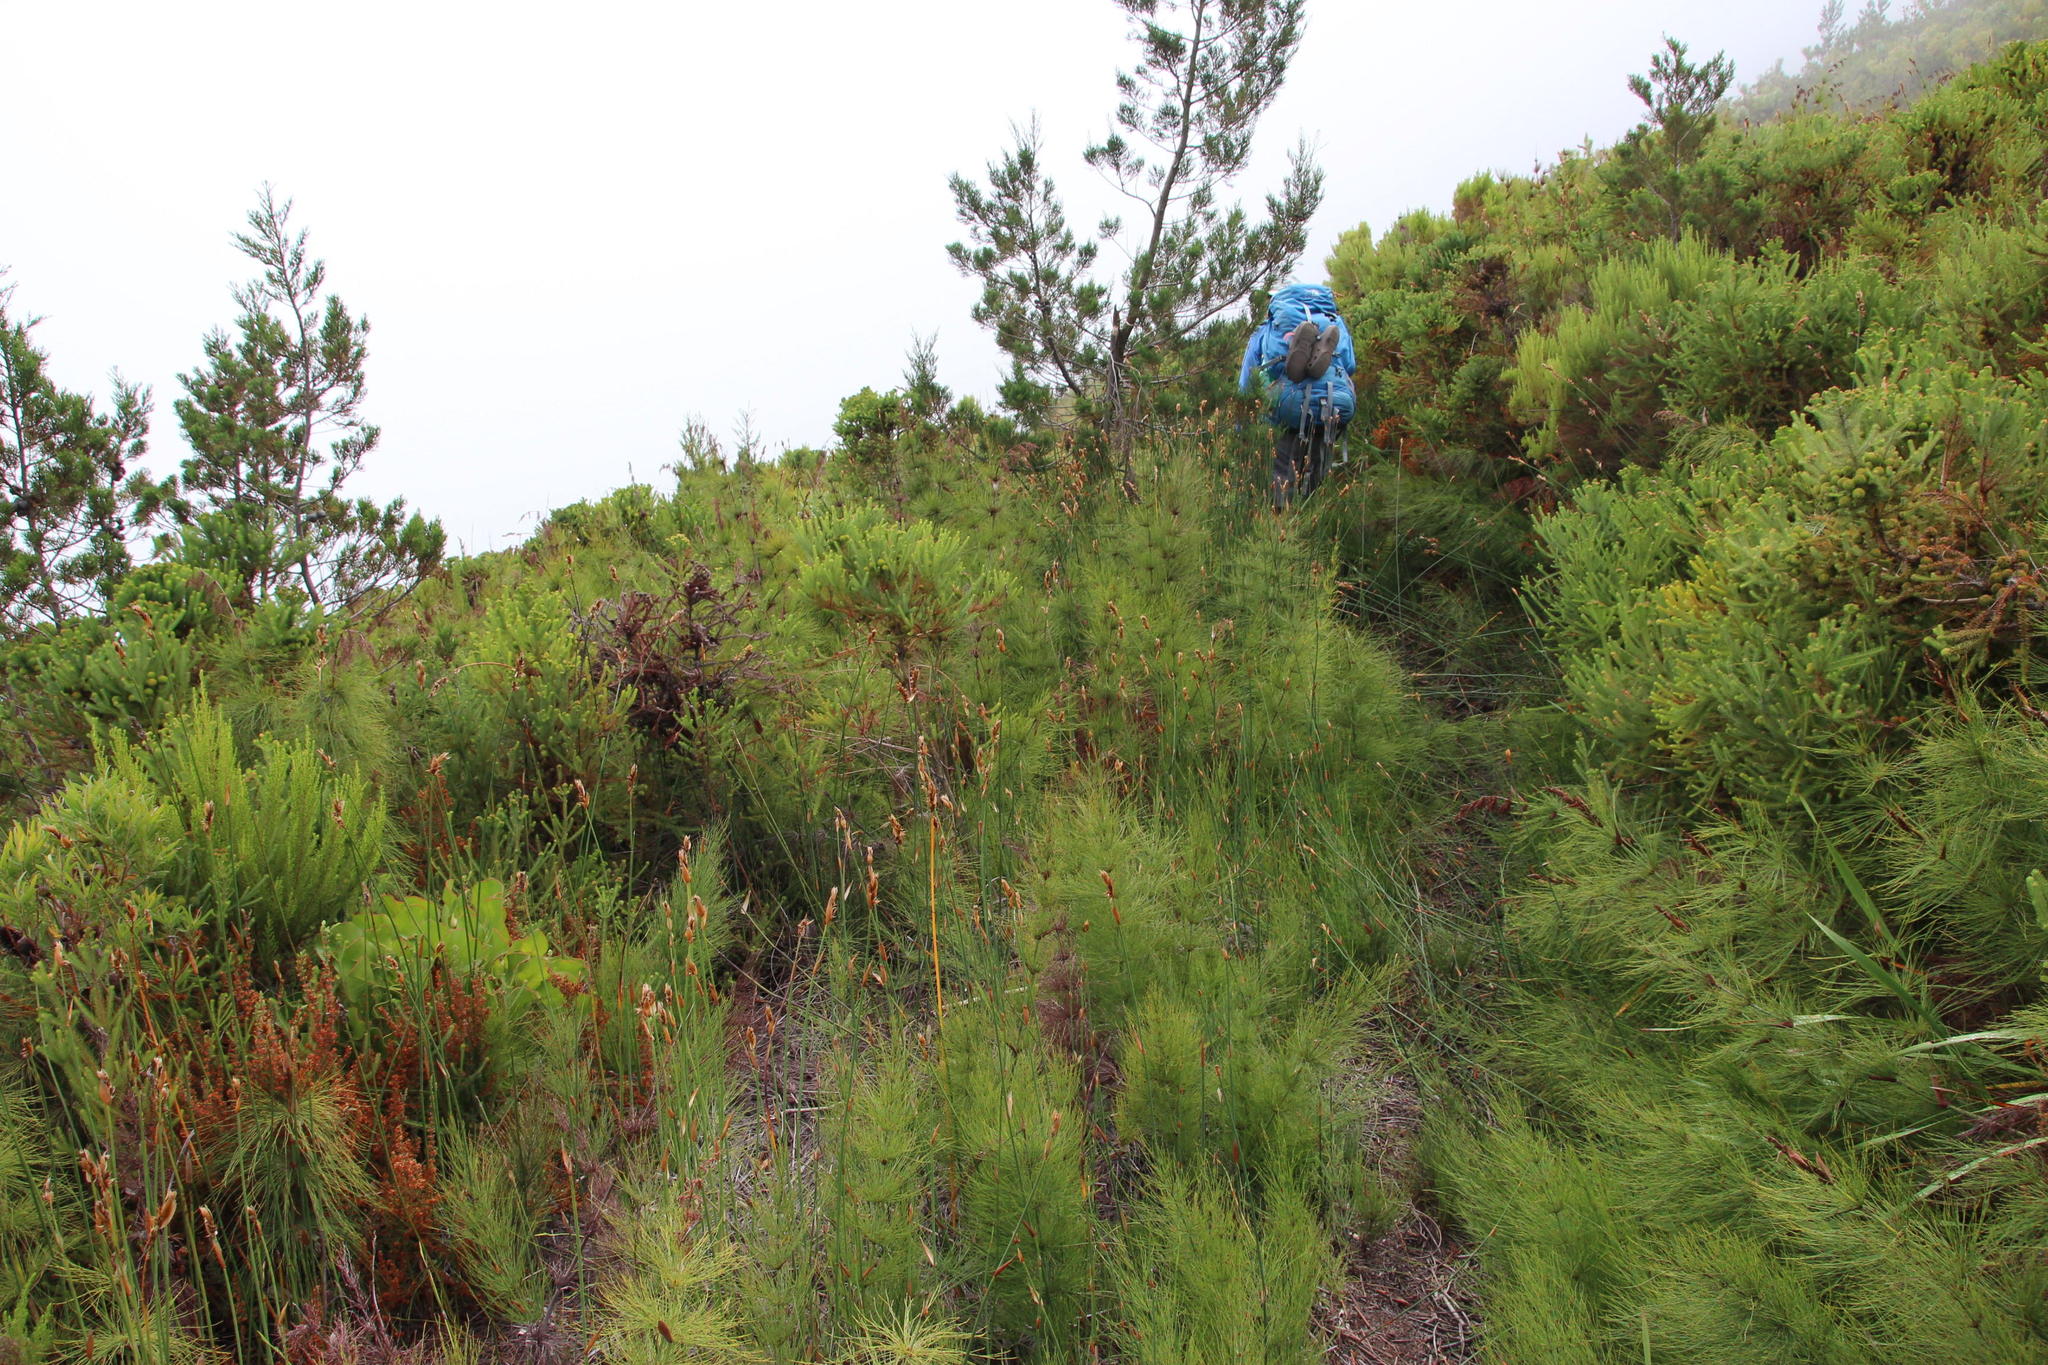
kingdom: Plantae
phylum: Tracheophyta
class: Liliopsida
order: Poales
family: Restionaceae
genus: Elegia
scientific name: Elegia capensis
